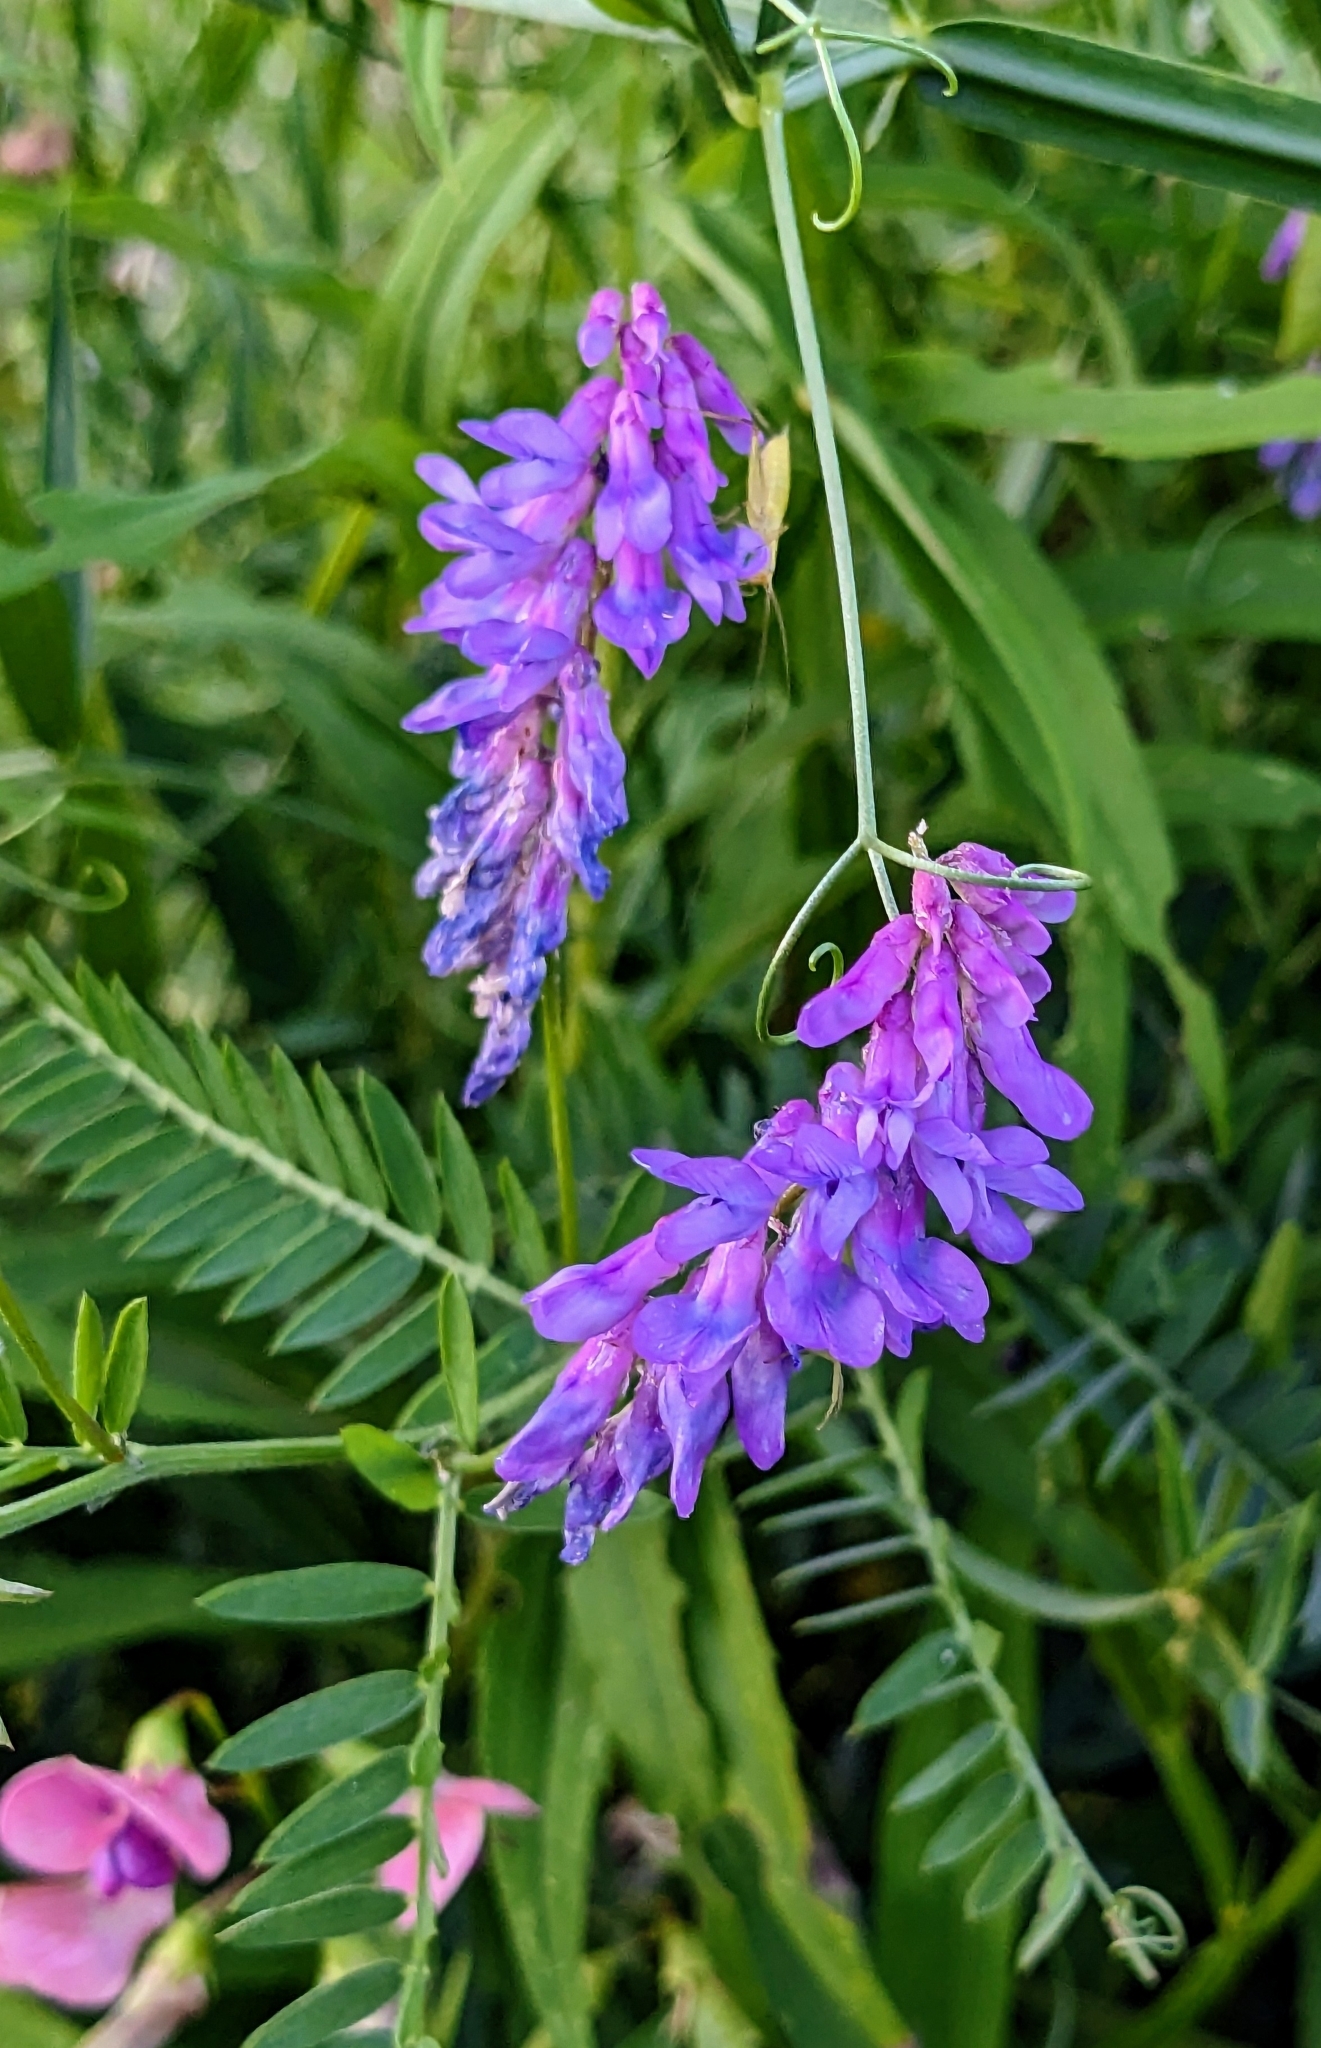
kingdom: Plantae
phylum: Tracheophyta
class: Magnoliopsida
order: Fabales
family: Fabaceae
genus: Vicia
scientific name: Vicia cracca
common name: Bird vetch
